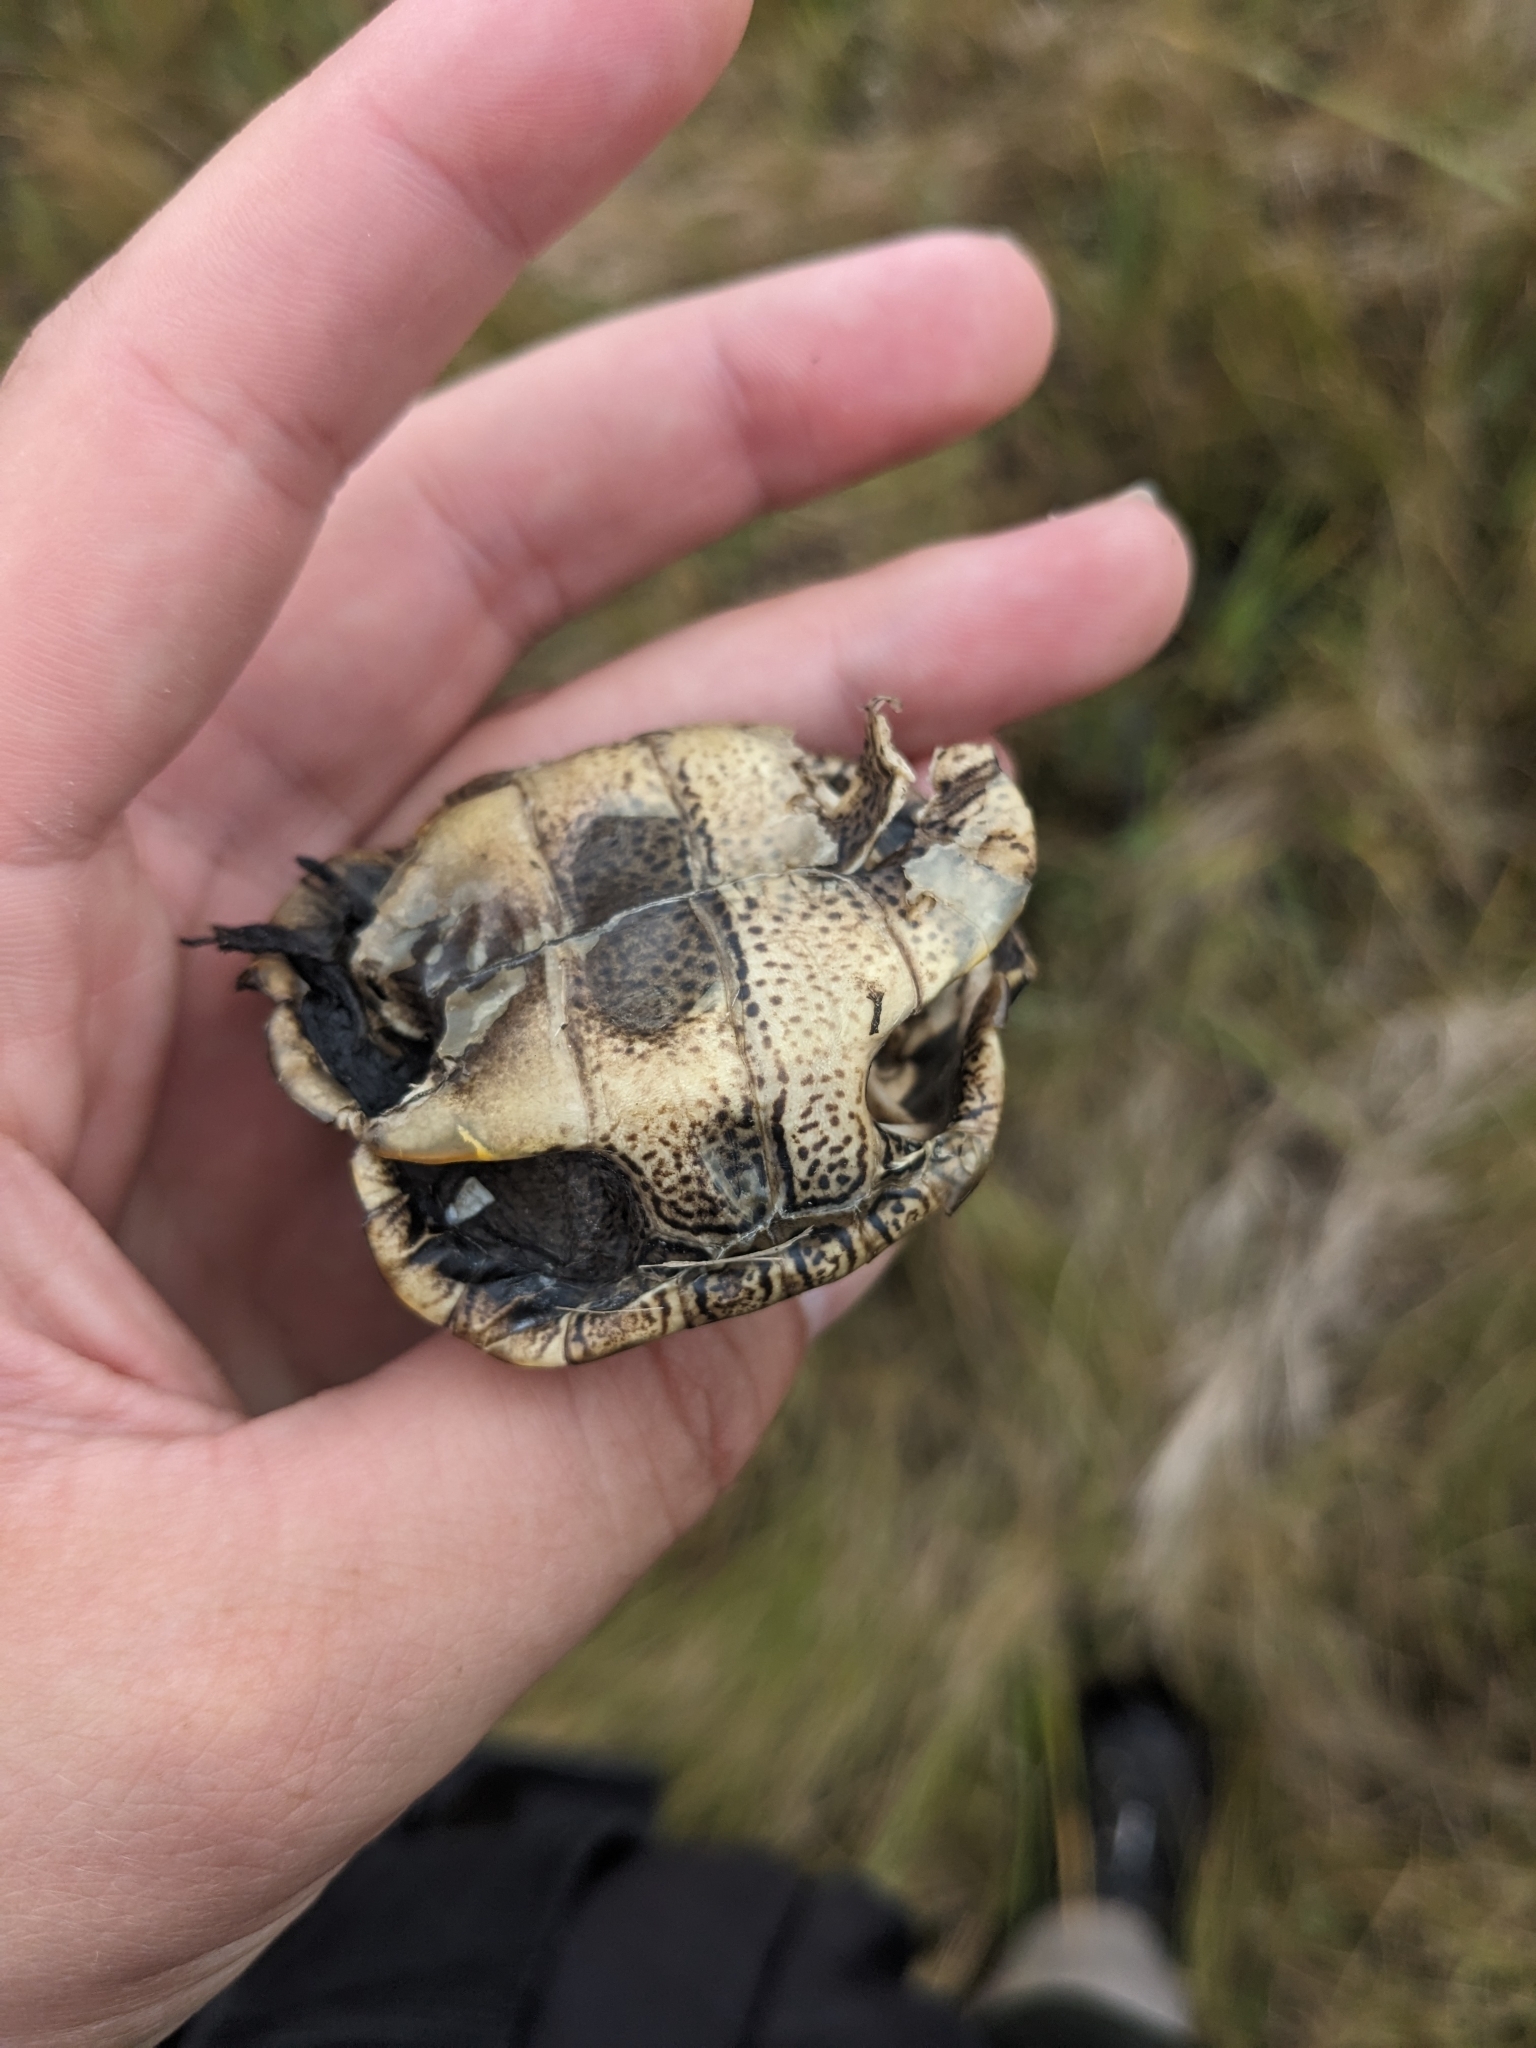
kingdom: Animalia
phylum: Chordata
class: Testudines
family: Emydidae
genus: Malaclemys
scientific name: Malaclemys terrapin
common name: Diamondback terrapin
